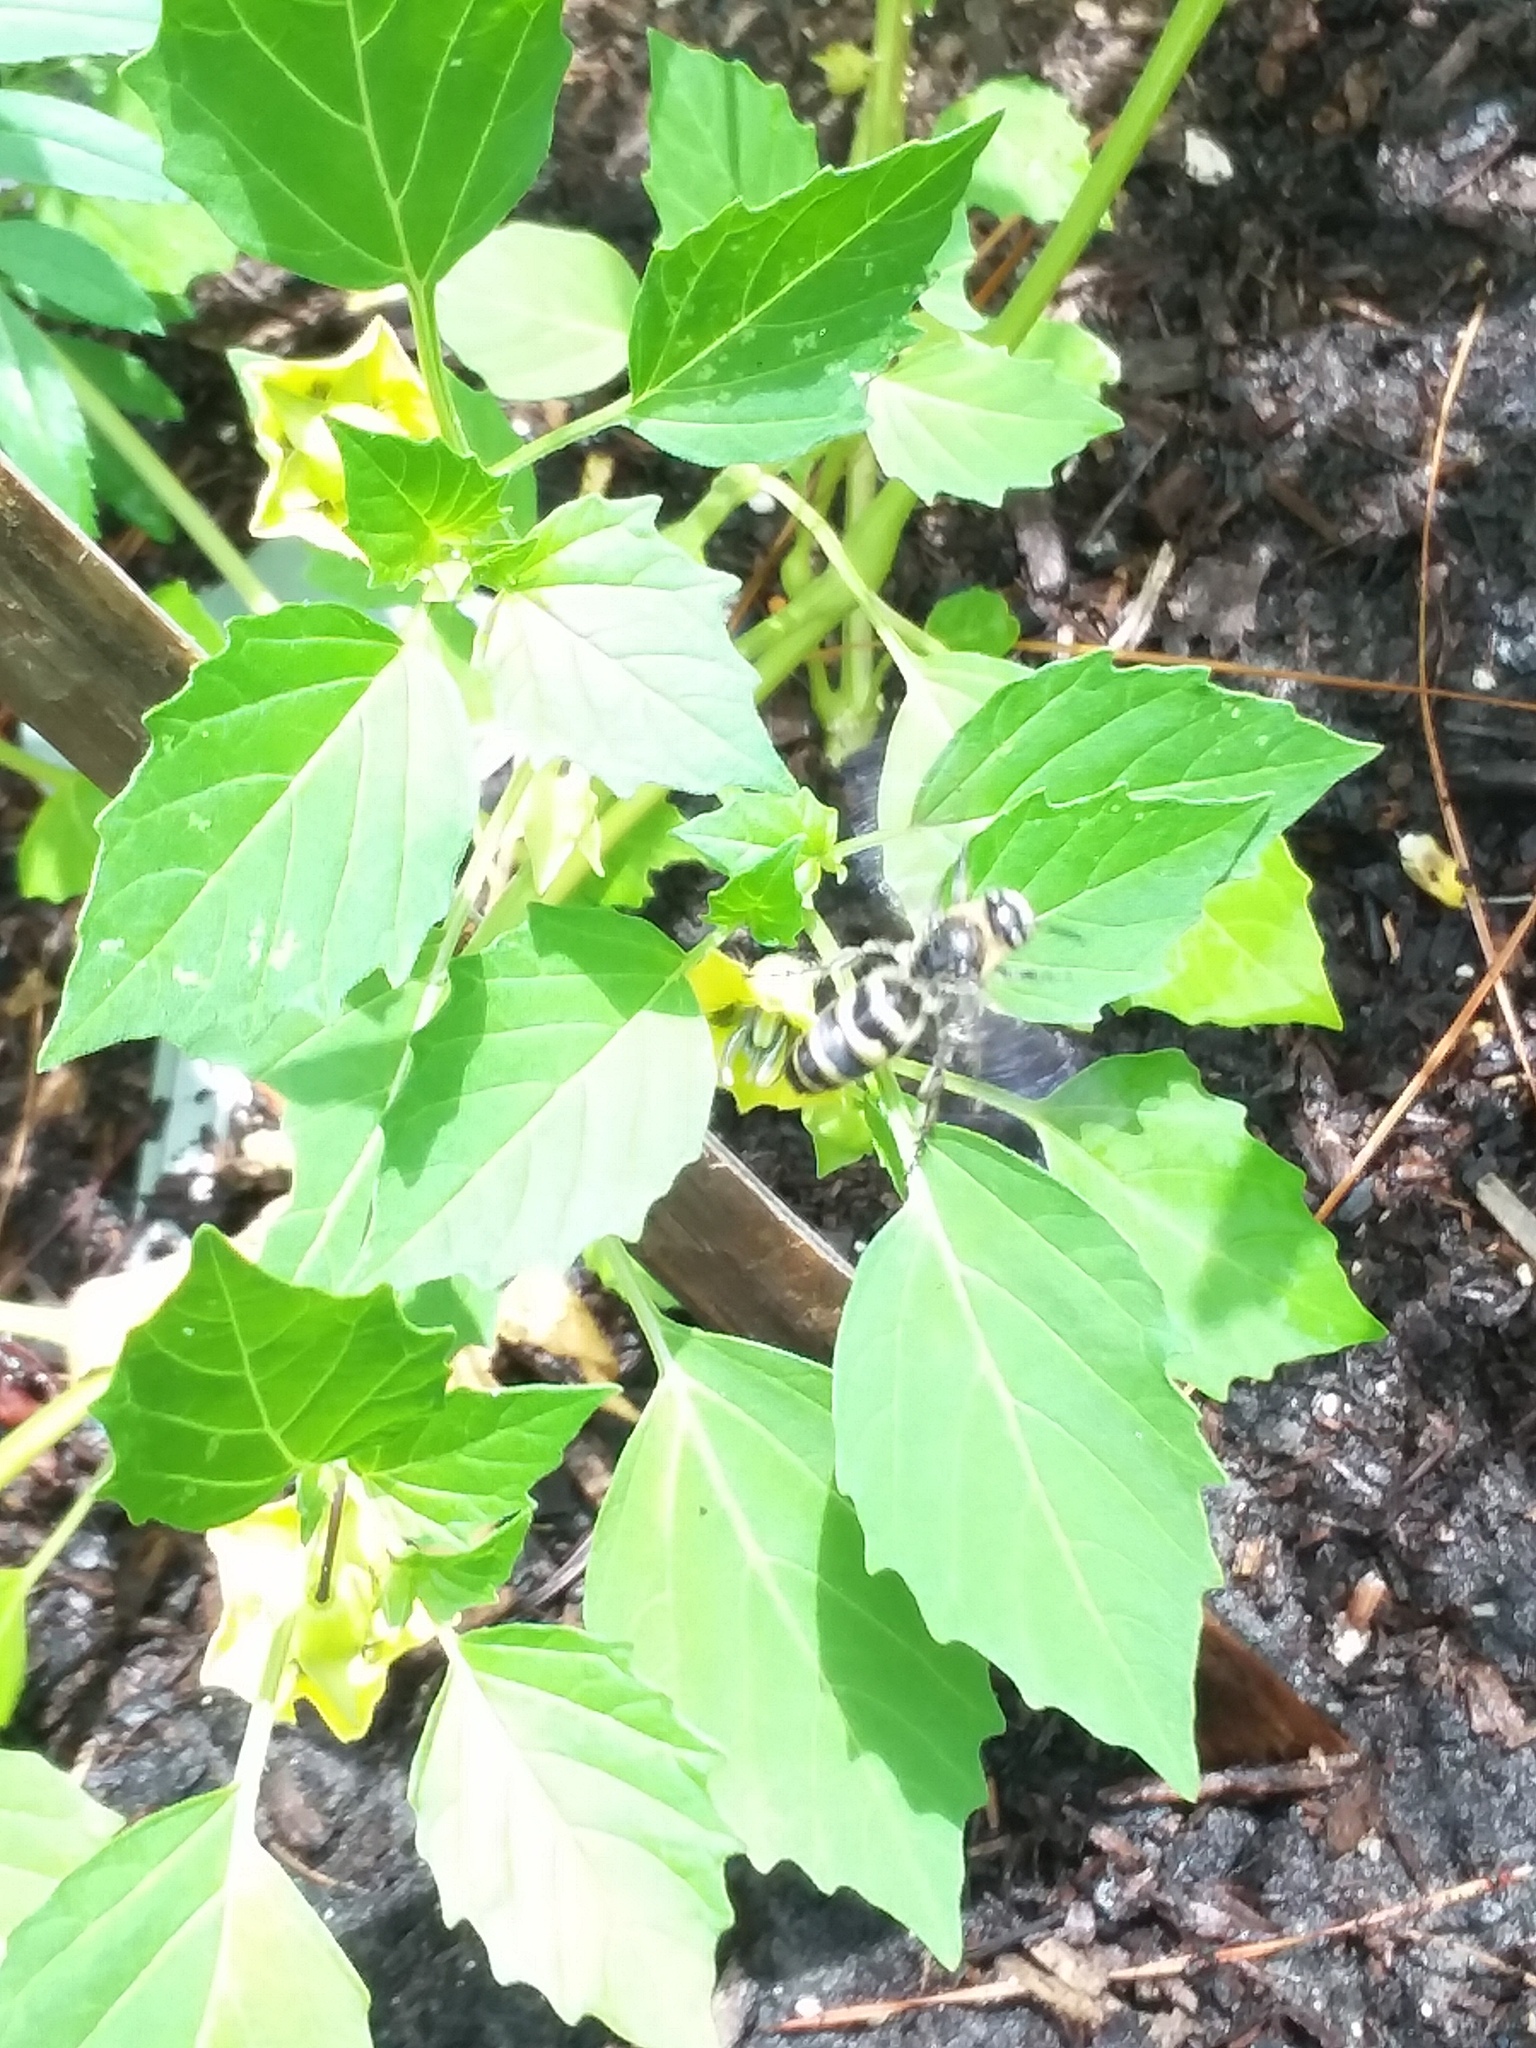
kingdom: Animalia
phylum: Arthropoda
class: Insecta
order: Hymenoptera
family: Scoliidae
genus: Dielis
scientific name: Dielis
